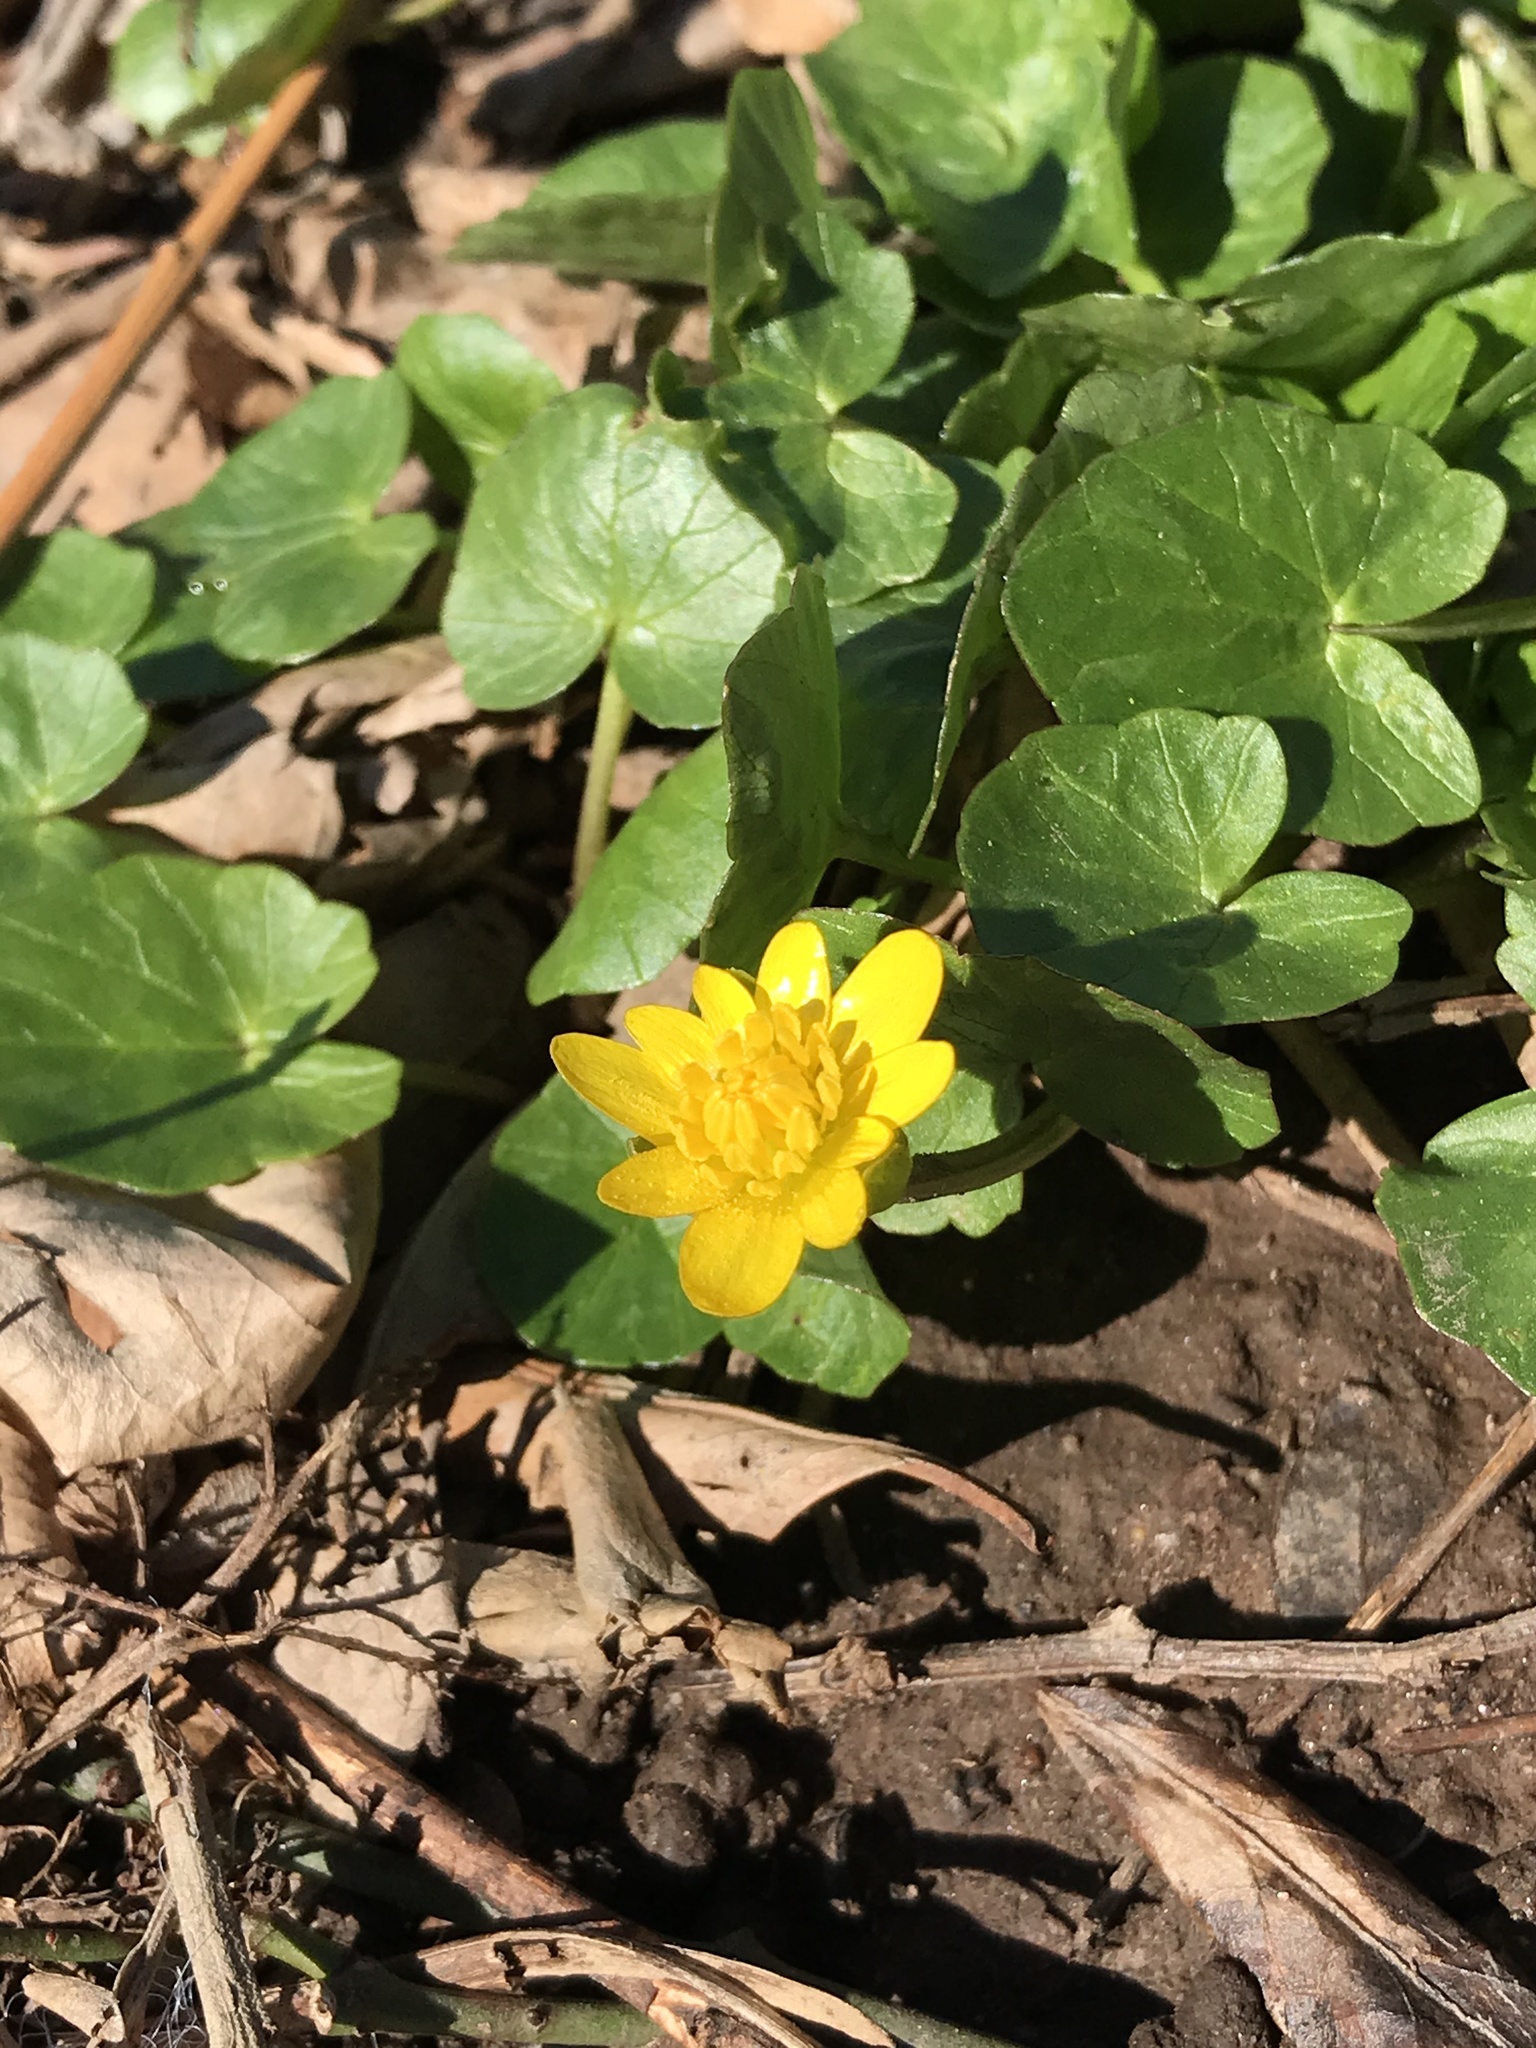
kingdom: Plantae
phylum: Tracheophyta
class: Magnoliopsida
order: Ranunculales
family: Ranunculaceae
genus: Ficaria
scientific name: Ficaria verna
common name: Lesser celandine
